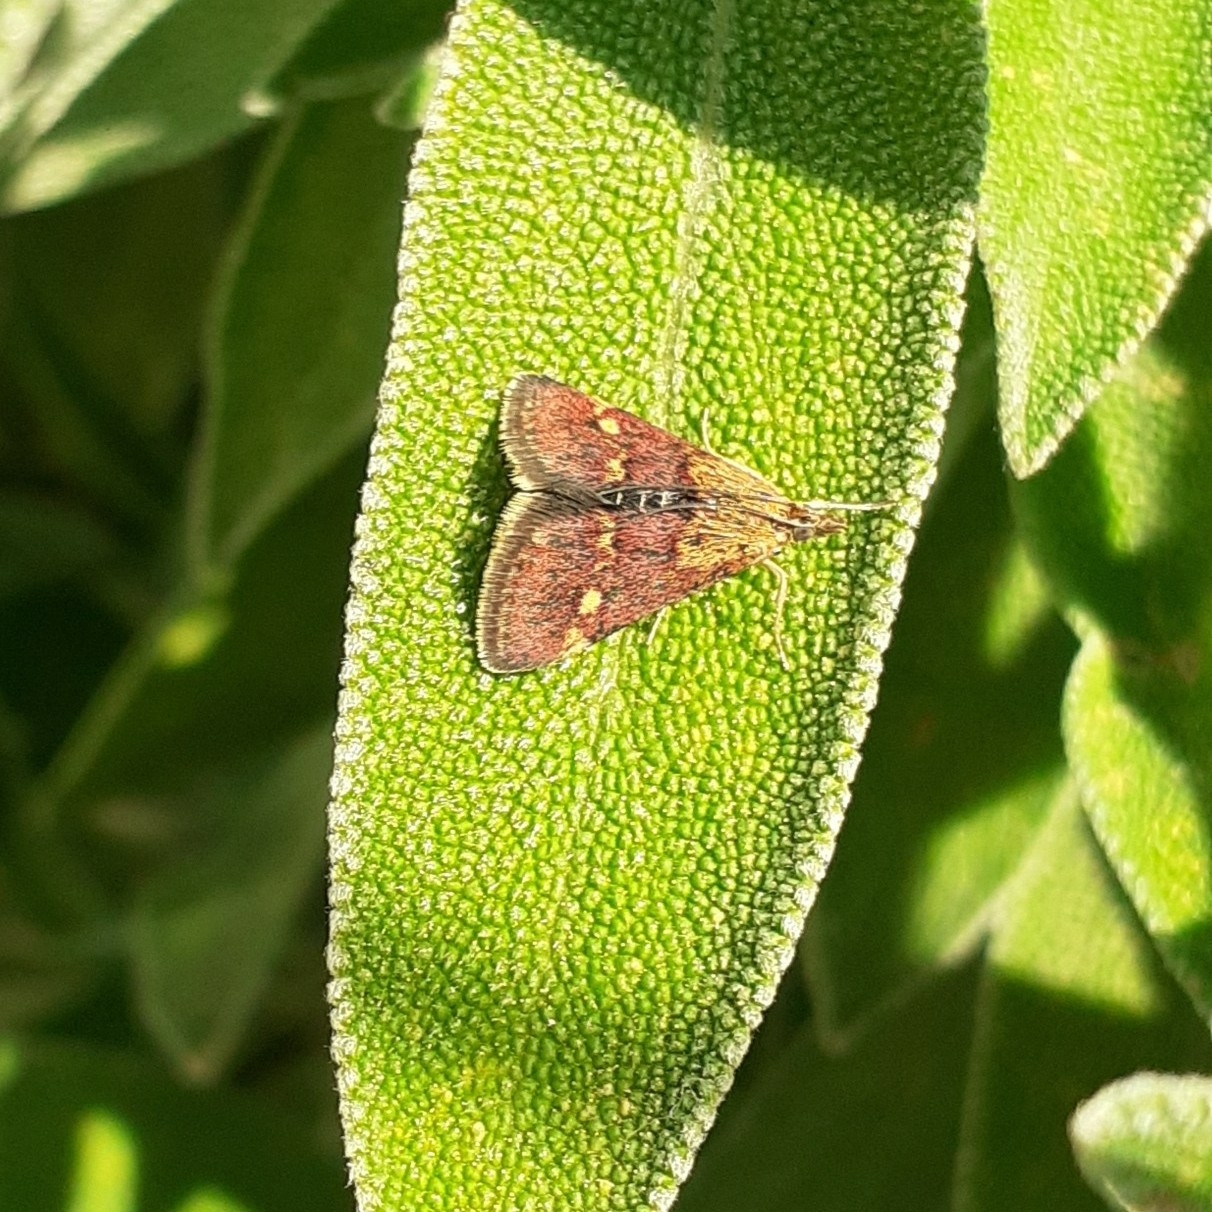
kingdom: Animalia
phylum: Arthropoda
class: Insecta
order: Lepidoptera
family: Crambidae
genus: Pyrausta
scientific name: Pyrausta aurata
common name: Small purple & gold
